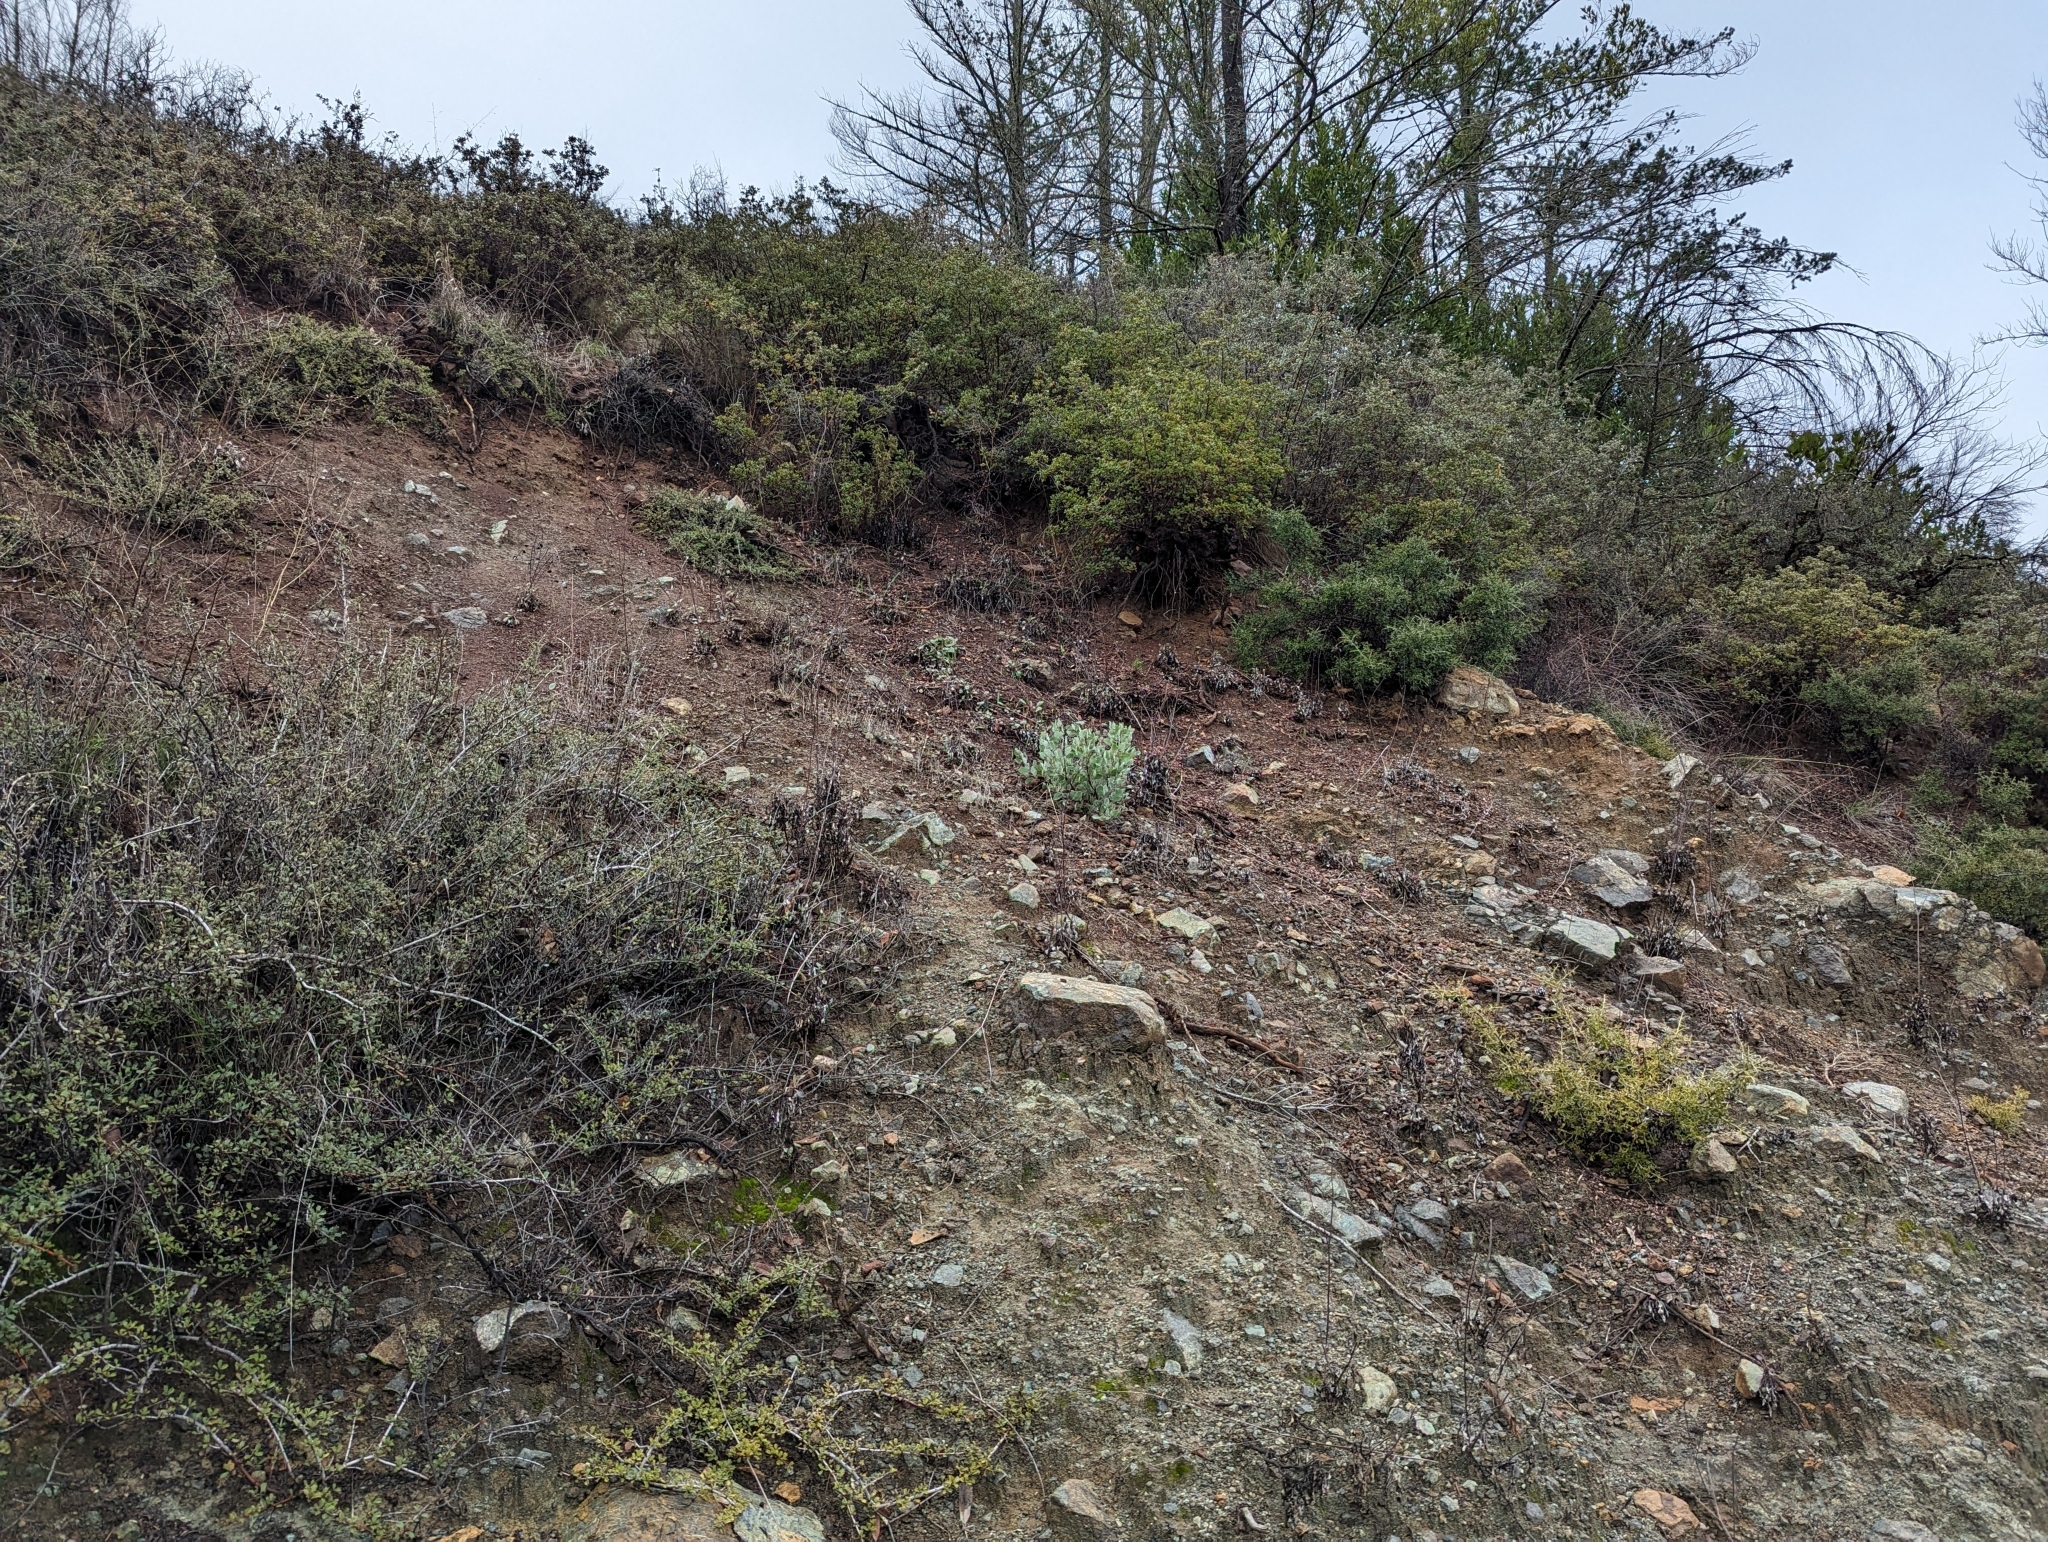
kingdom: Plantae
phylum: Tracheophyta
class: Magnoliopsida
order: Ericales
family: Ericaceae
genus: Arctostaphylos
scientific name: Arctostaphylos viscida
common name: White-leaf manzanita
